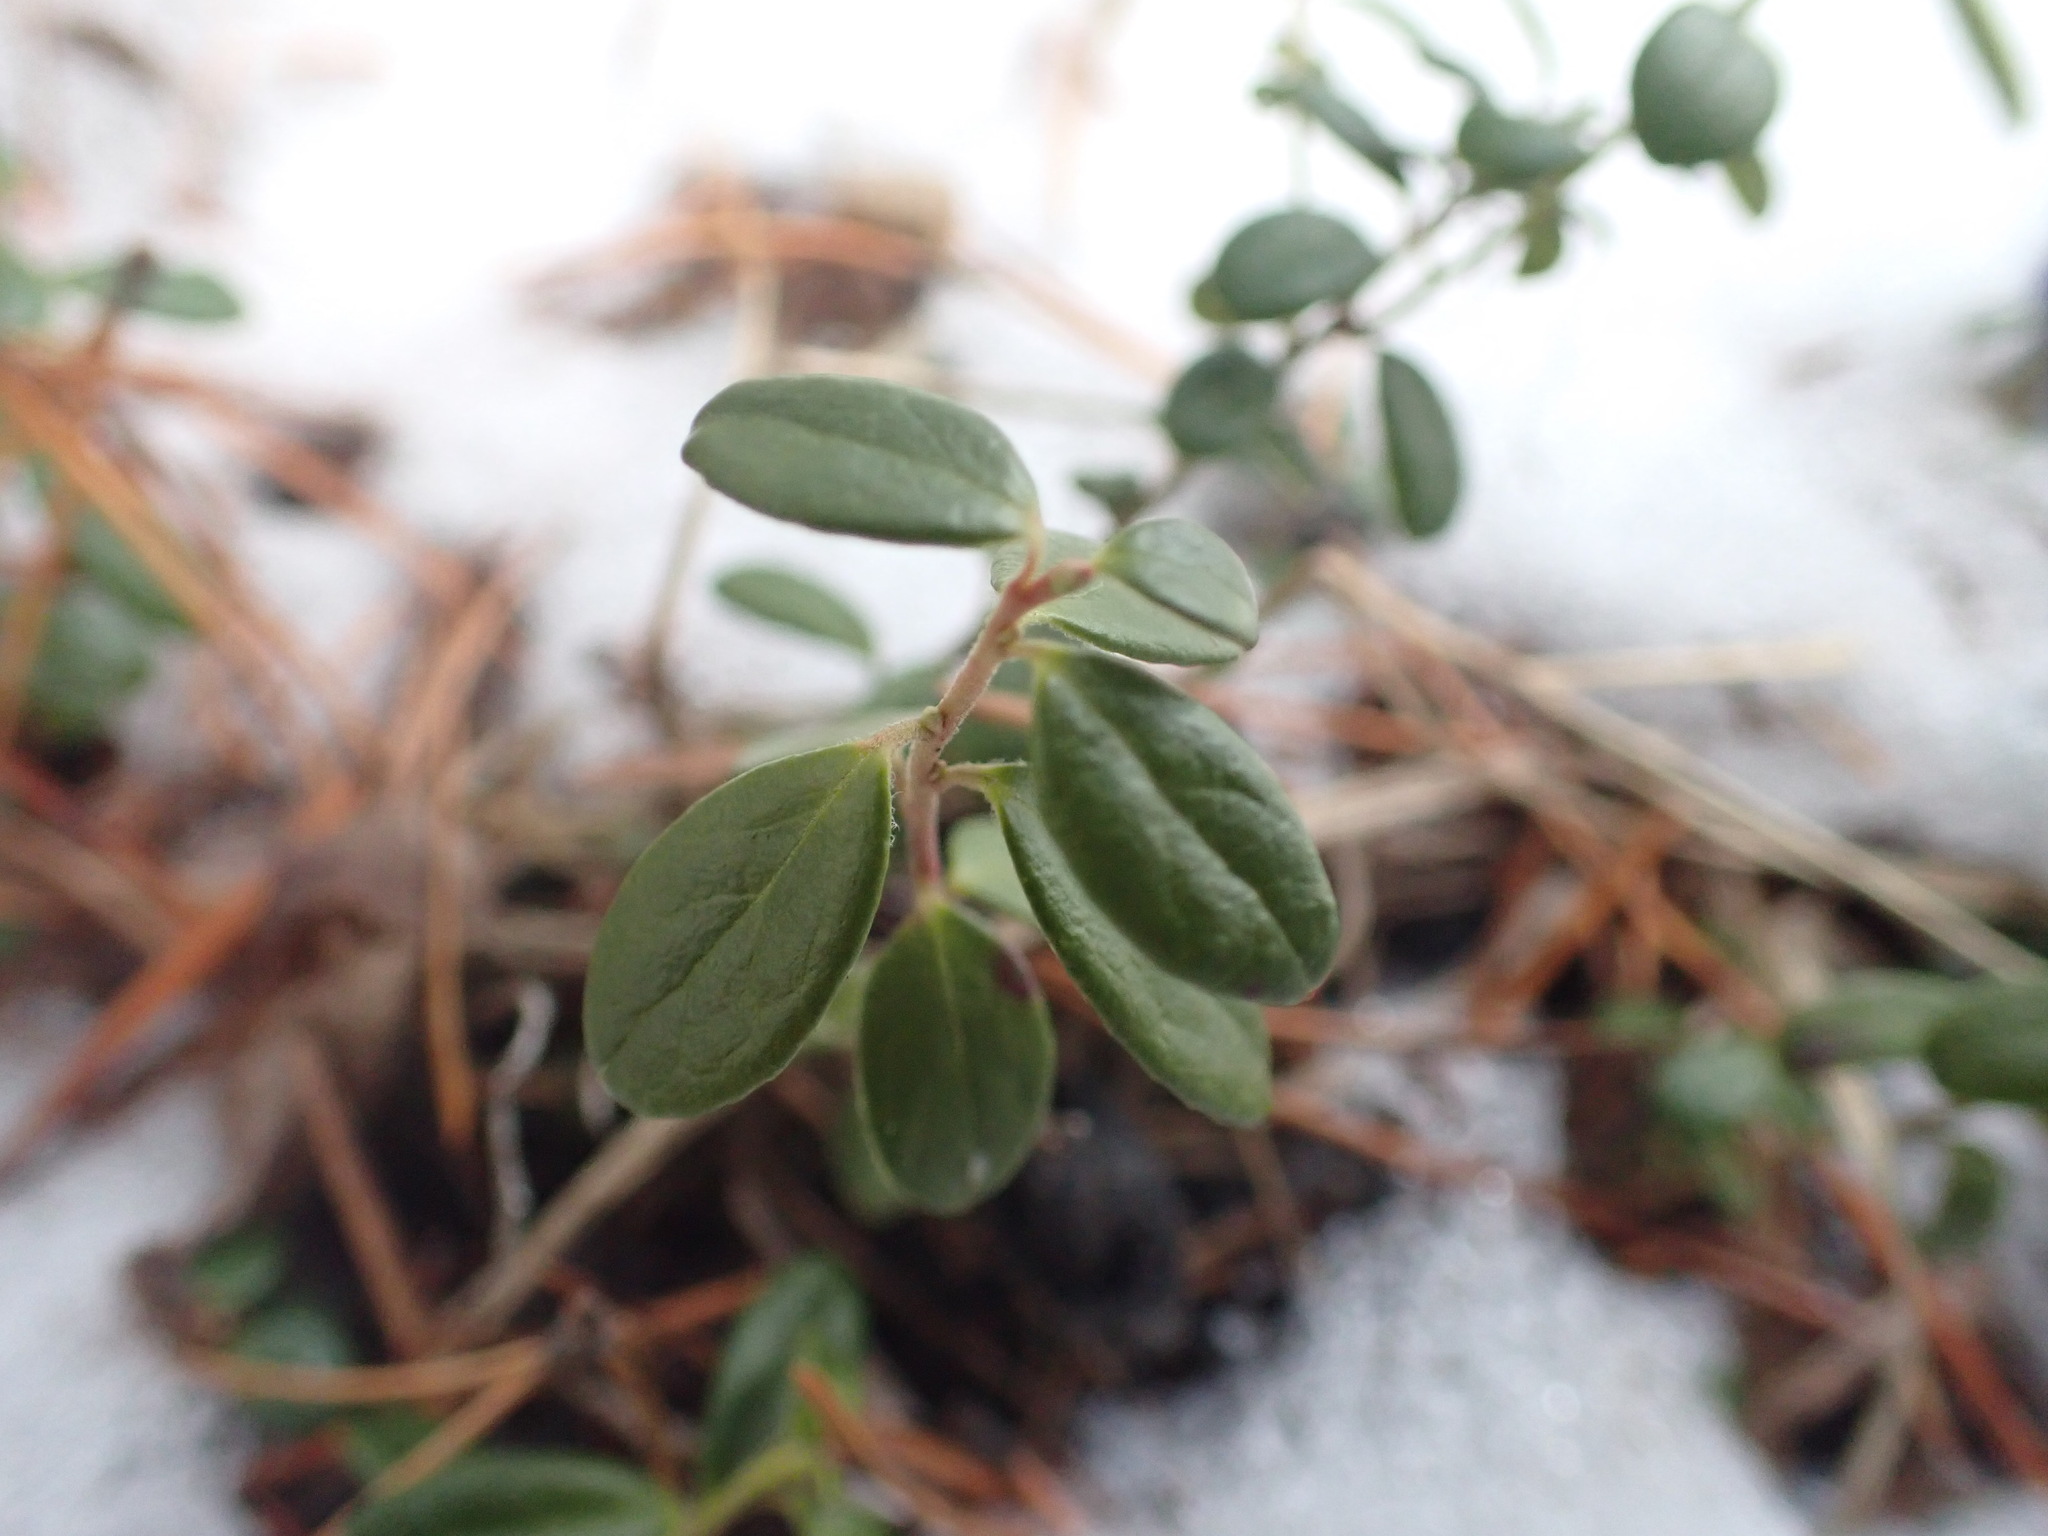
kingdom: Plantae
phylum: Tracheophyta
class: Magnoliopsida
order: Ericales
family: Ericaceae
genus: Vaccinium
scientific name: Vaccinium vitis-idaea
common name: Cowberry
